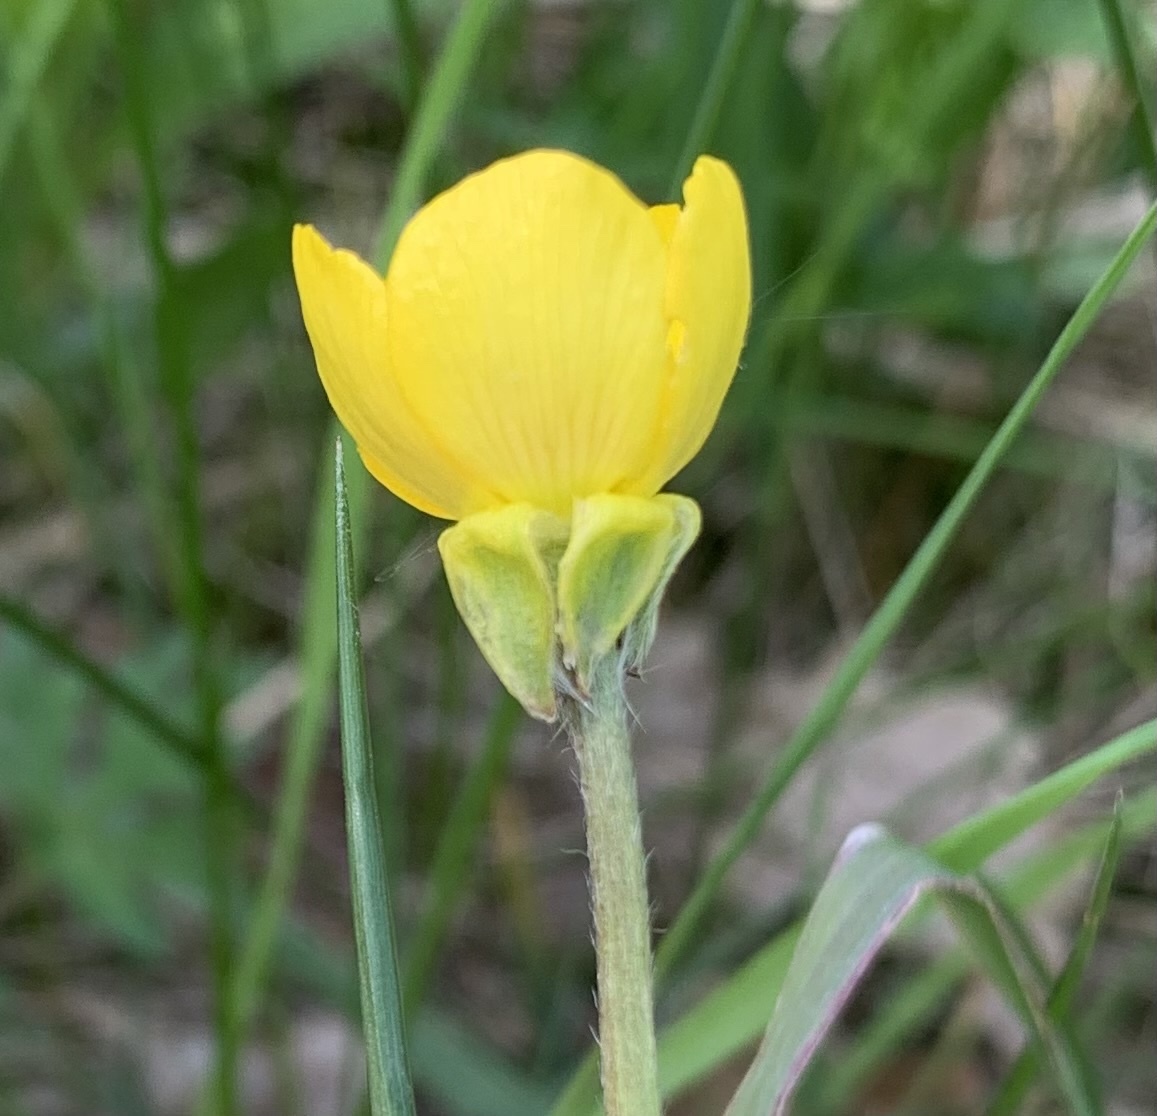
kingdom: Plantae
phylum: Tracheophyta
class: Magnoliopsida
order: Ranunculales
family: Ranunculaceae
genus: Ranunculus
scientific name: Ranunculus bulbosus
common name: Bulbous buttercup
